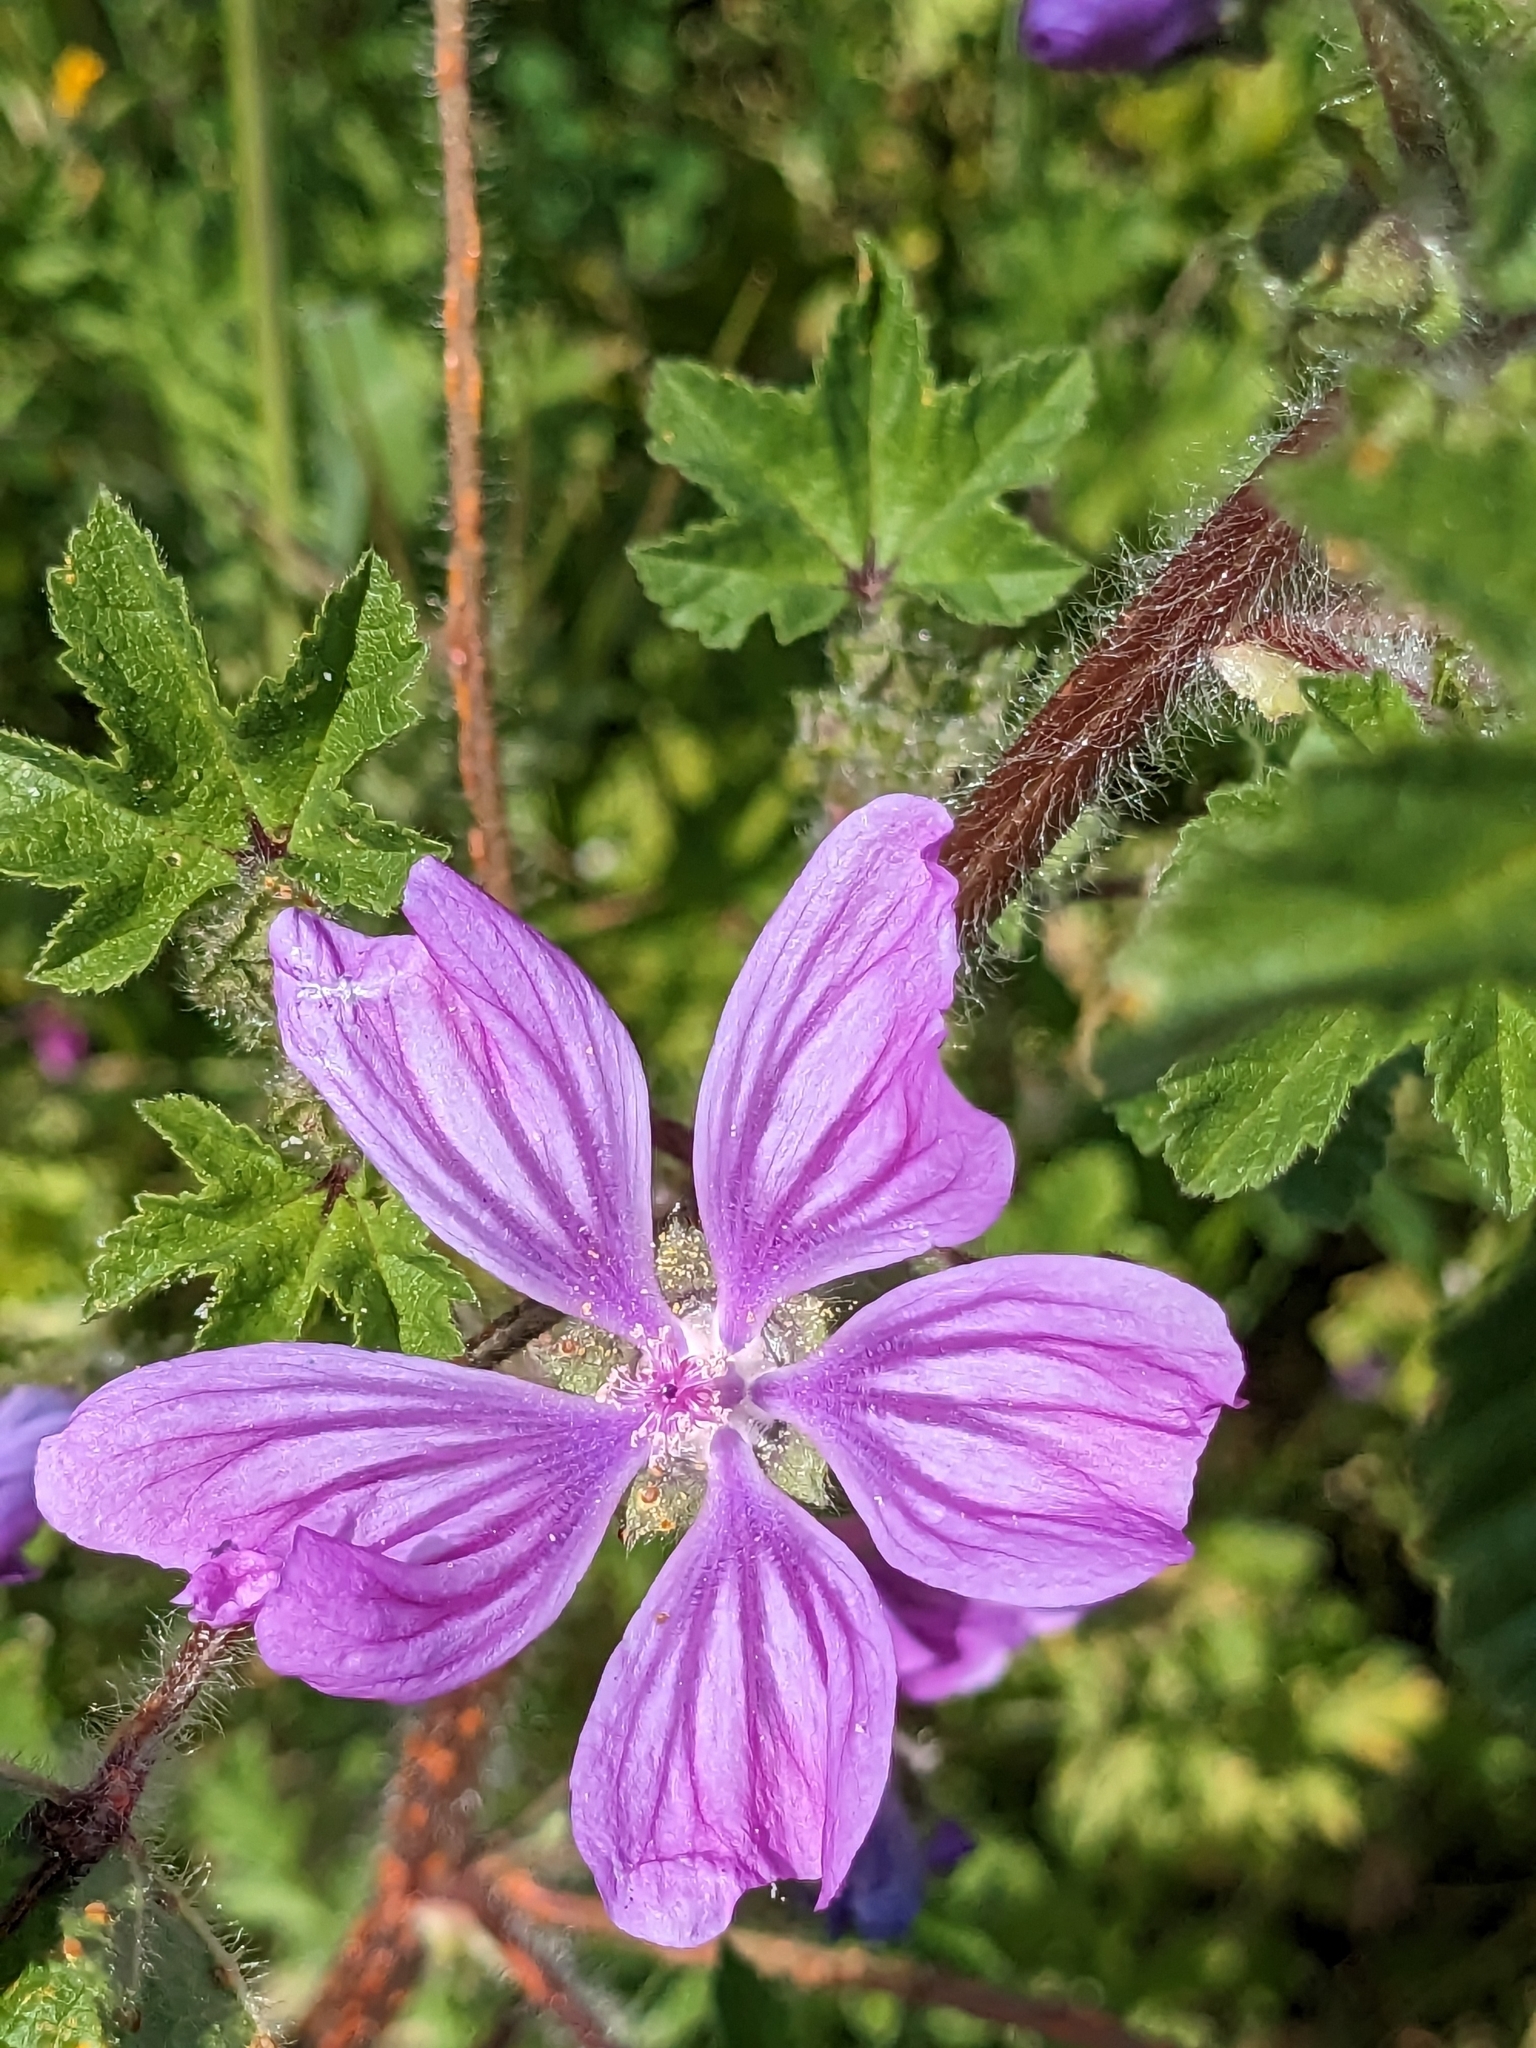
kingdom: Plantae
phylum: Tracheophyta
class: Magnoliopsida
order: Malvales
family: Malvaceae
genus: Malva
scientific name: Malva sylvestris
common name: Common mallow
